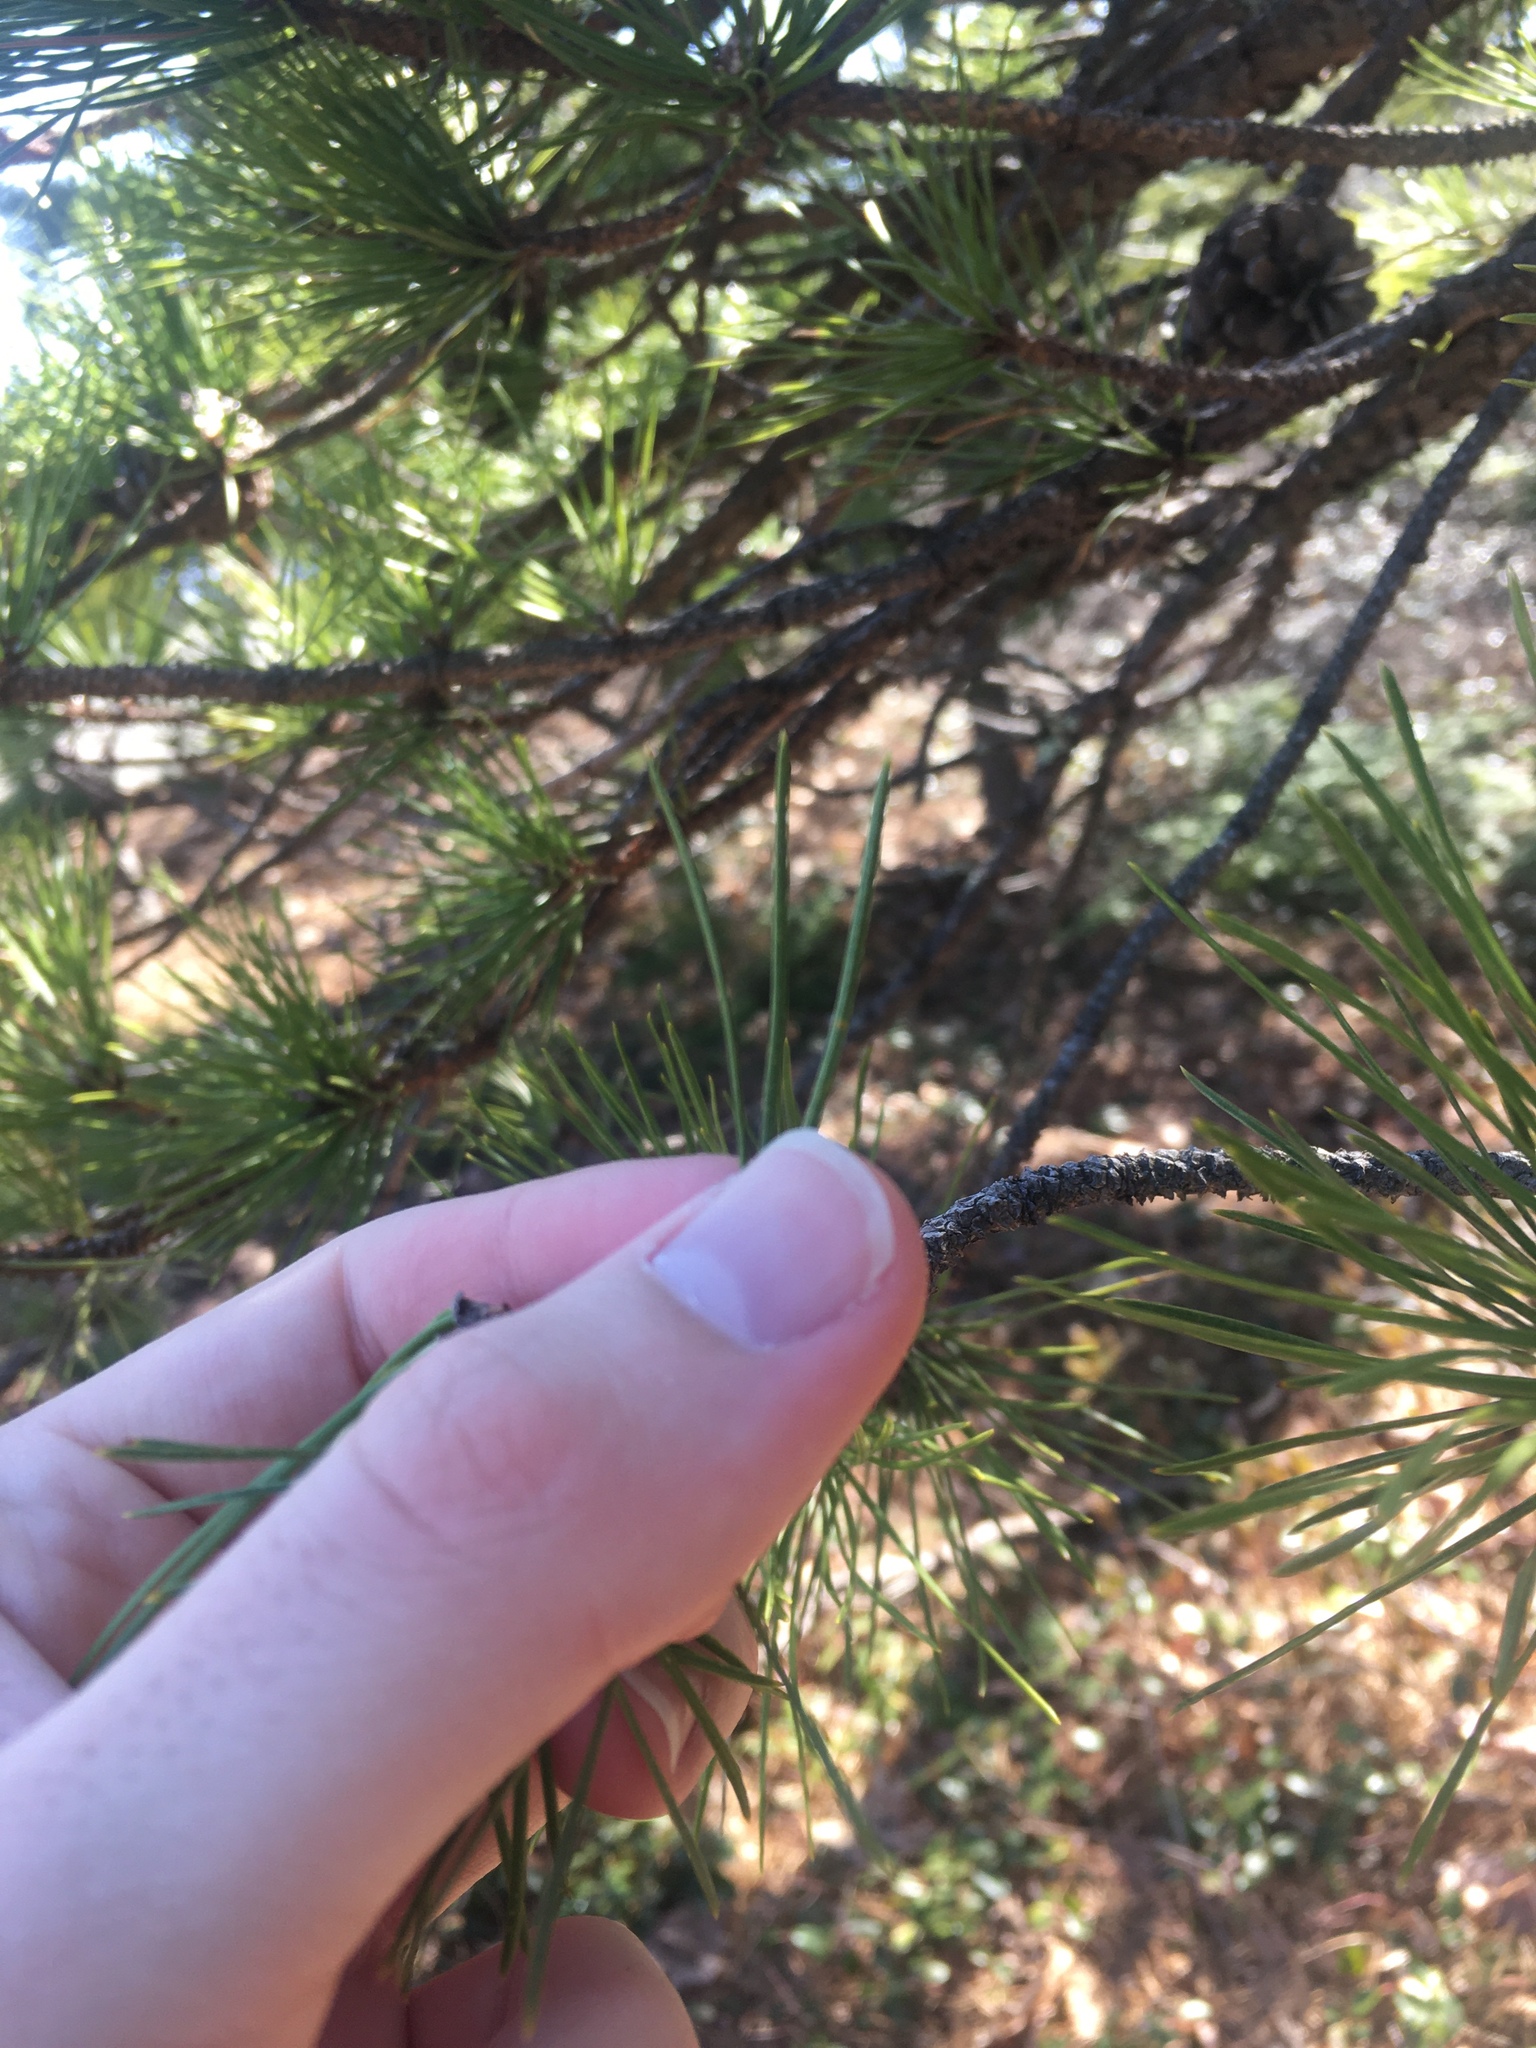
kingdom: Plantae
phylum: Tracheophyta
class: Pinopsida
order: Pinales
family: Pinaceae
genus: Pinus
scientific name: Pinus rigida
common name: Pitch pine
